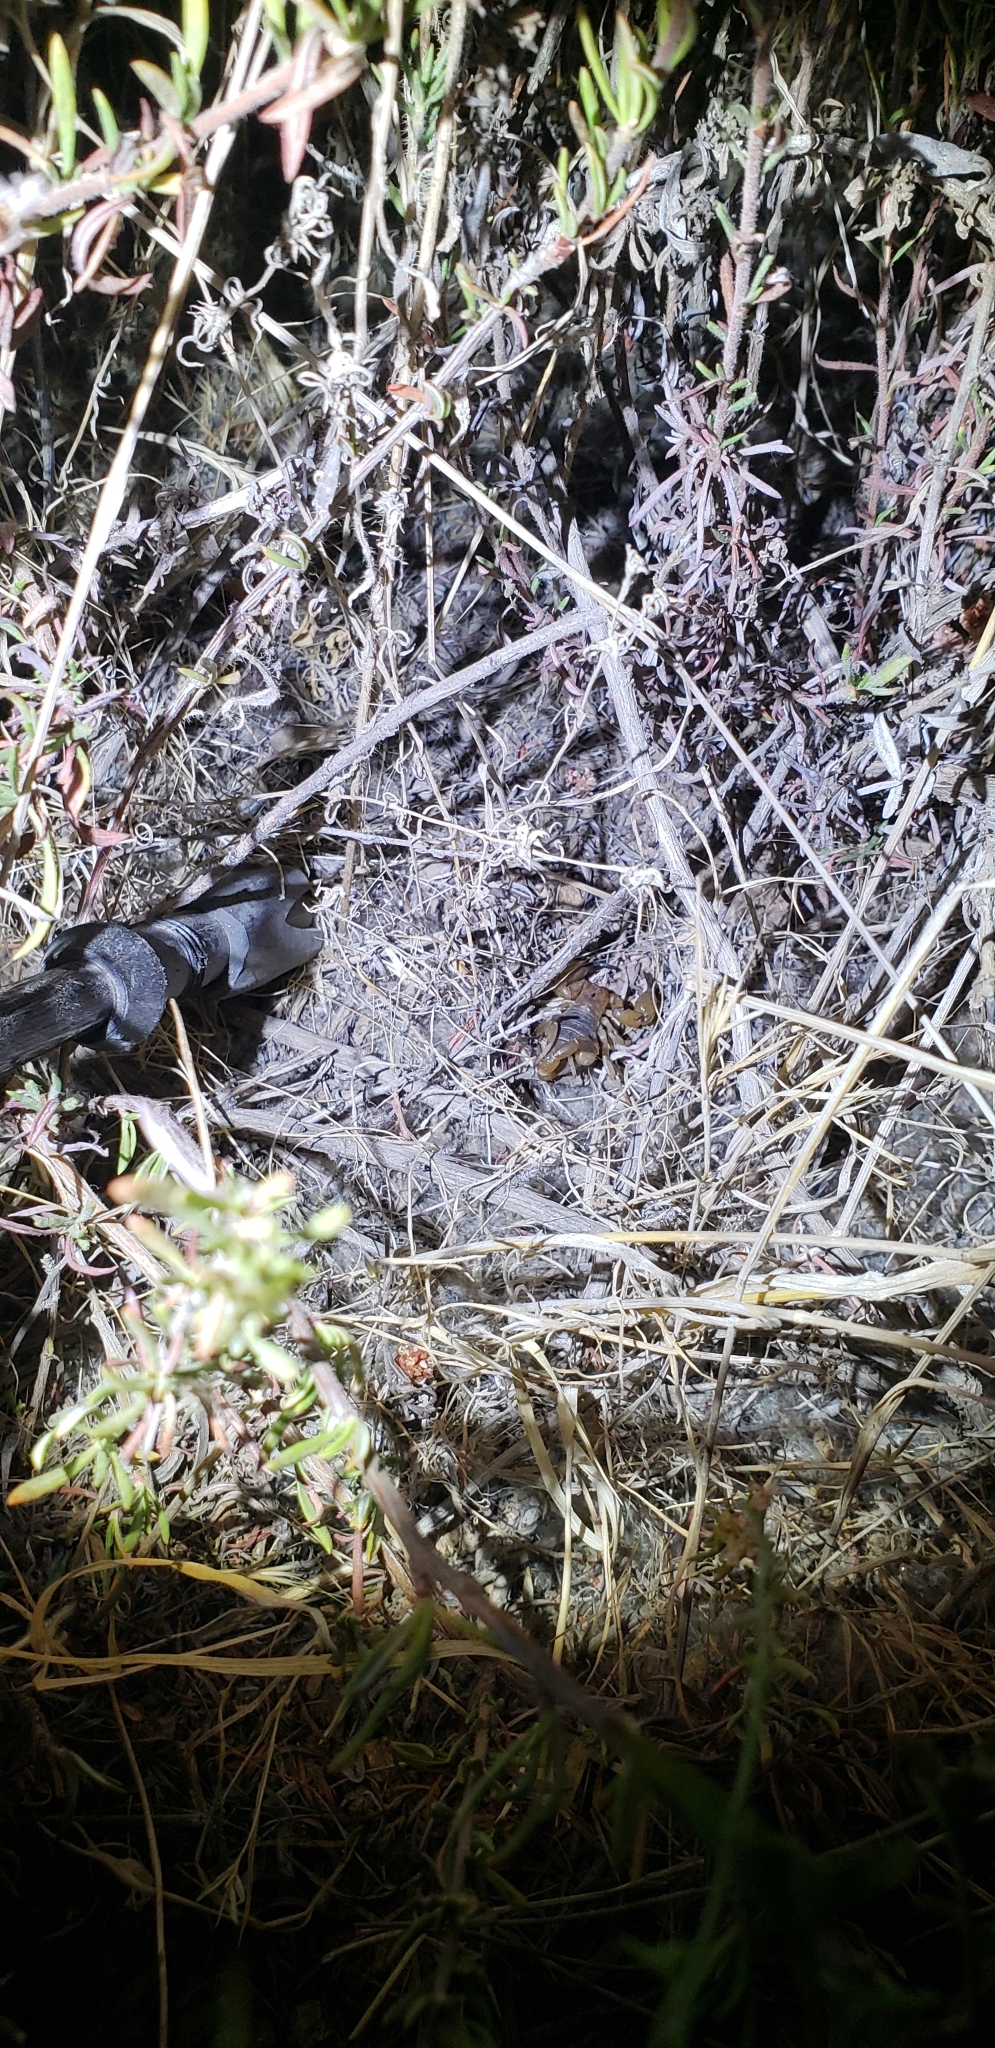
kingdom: Animalia
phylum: Arthropoda
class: Arachnida
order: Scorpiones
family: Chactidae
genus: Anuroctonus
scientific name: Anuroctonus pococki
